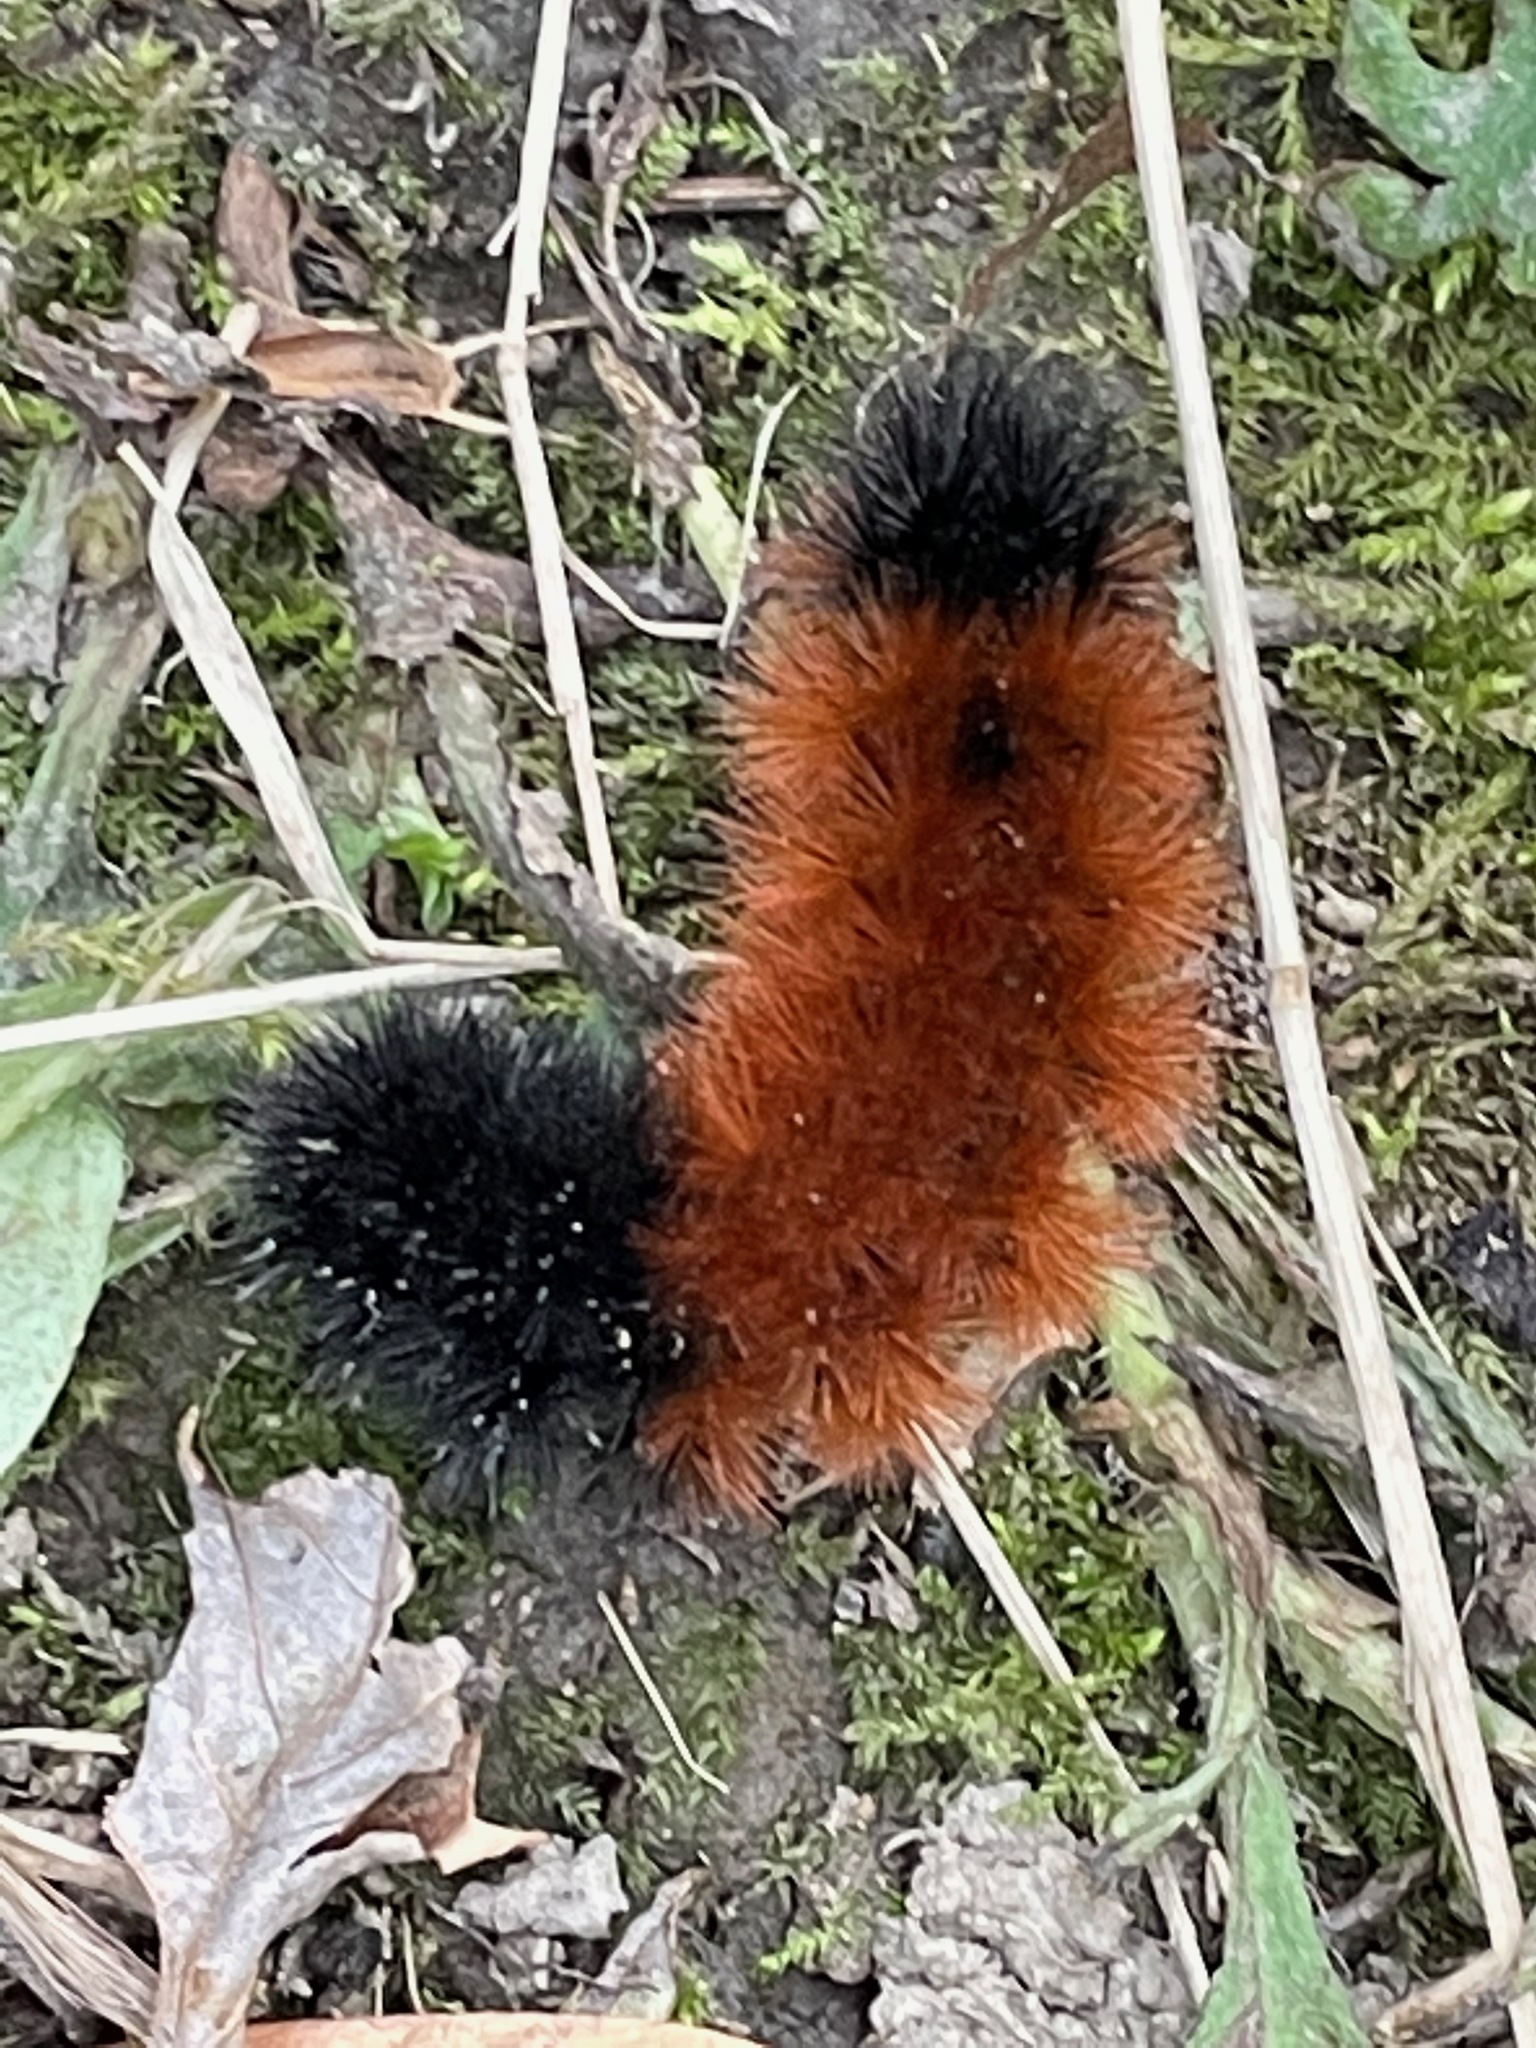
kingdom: Animalia
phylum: Arthropoda
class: Insecta
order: Lepidoptera
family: Erebidae
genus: Pyrrharctia
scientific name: Pyrrharctia isabella
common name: Isabella tiger moth
